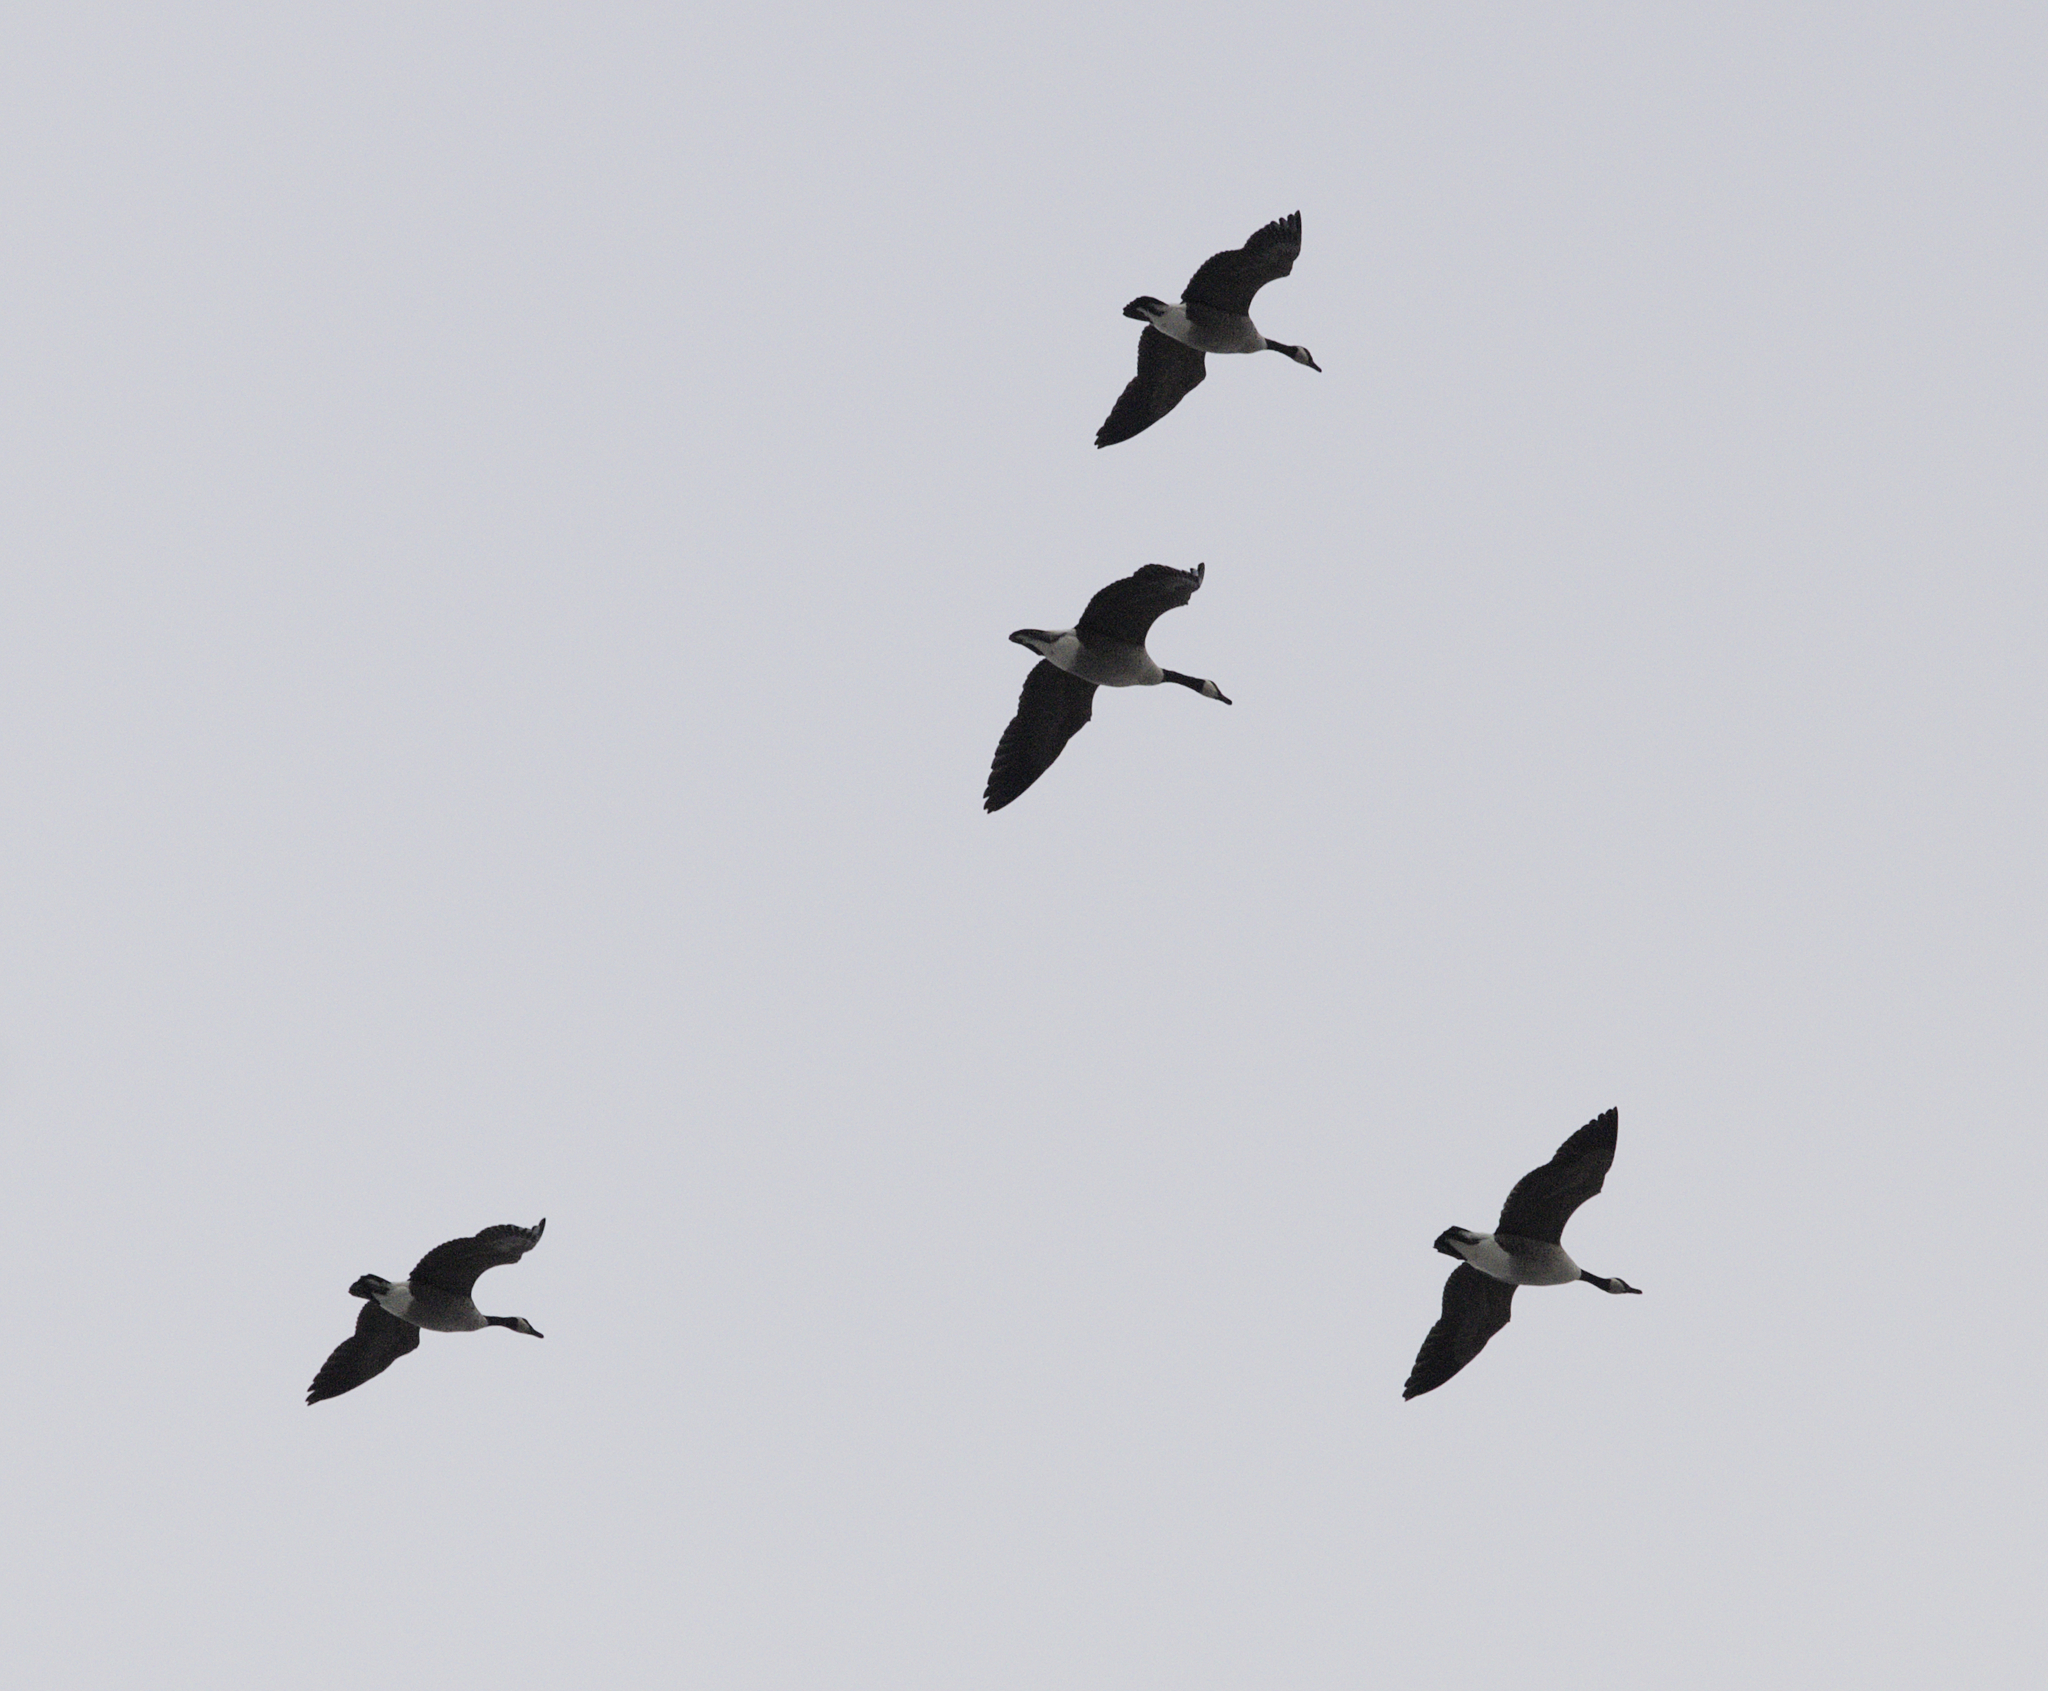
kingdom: Animalia
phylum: Chordata
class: Aves
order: Anseriformes
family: Anatidae
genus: Branta
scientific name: Branta canadensis
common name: Canada goose
